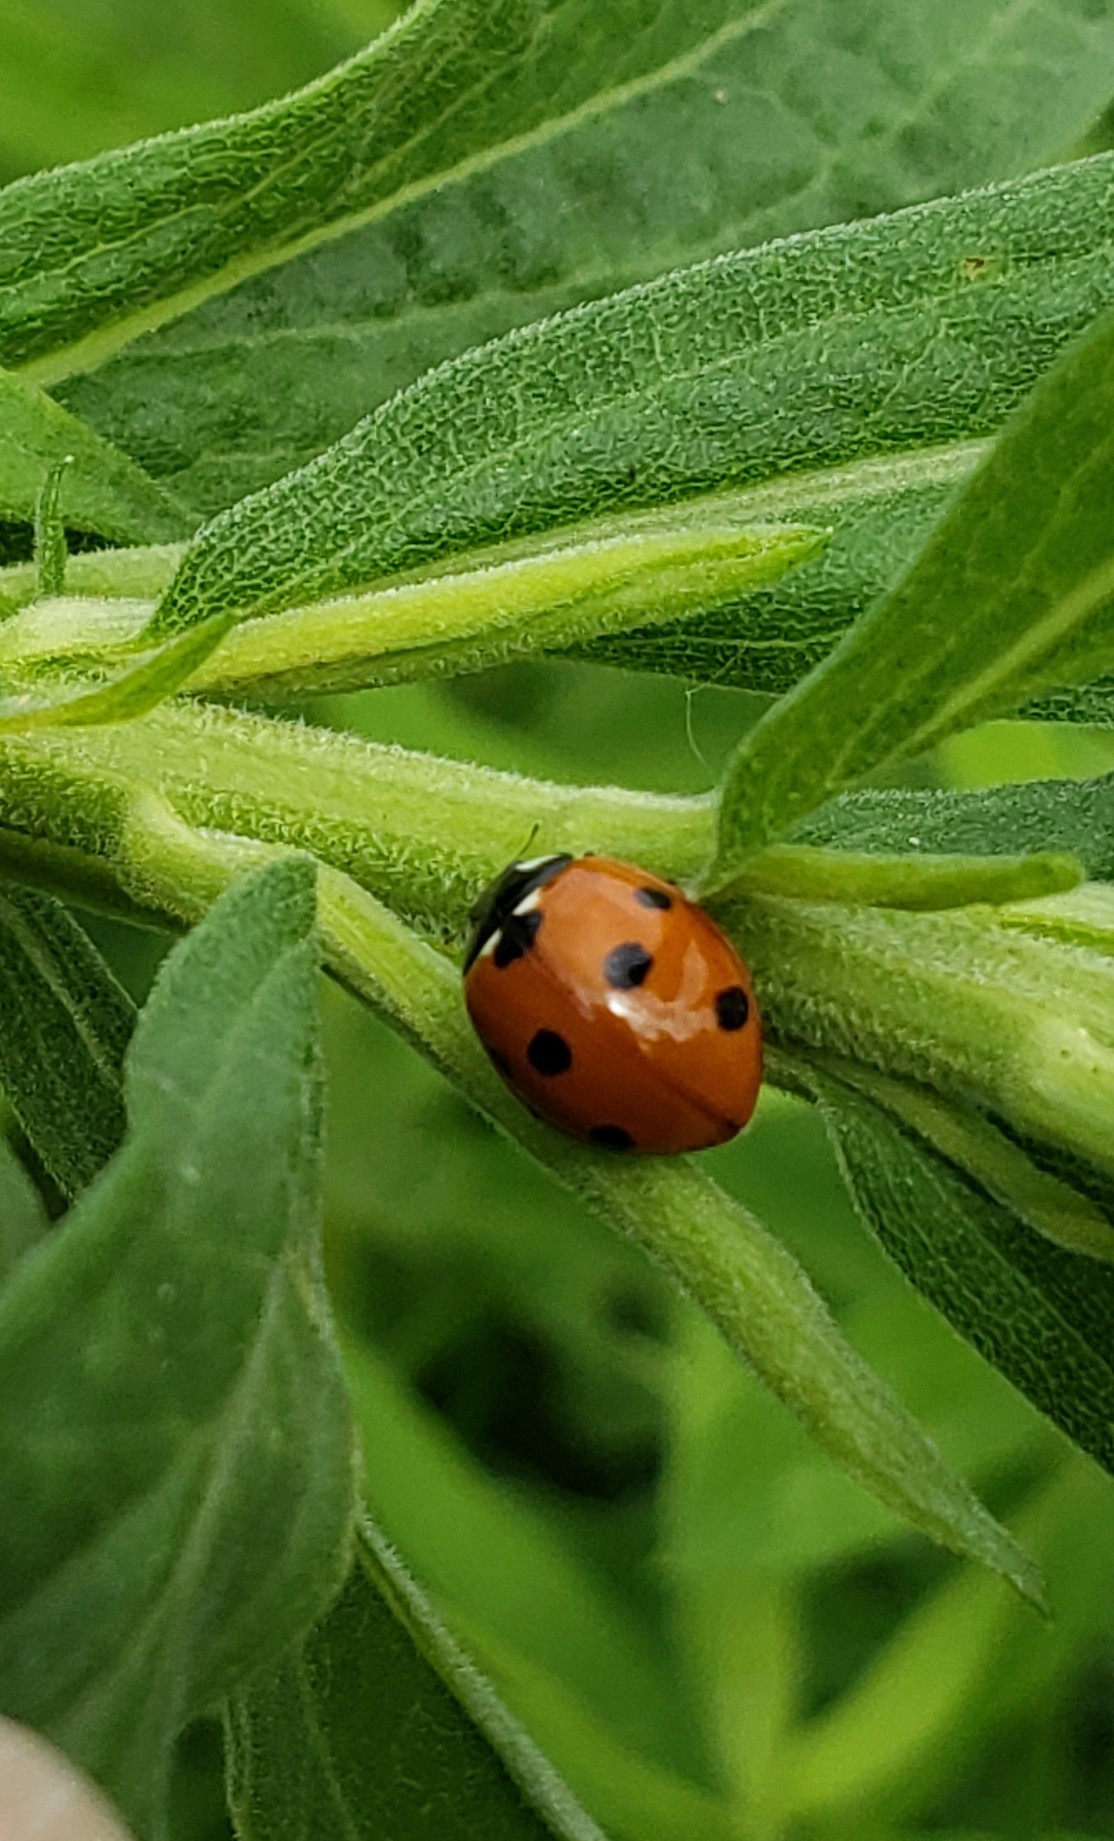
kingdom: Animalia
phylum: Arthropoda
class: Insecta
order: Coleoptera
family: Coccinellidae
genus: Coccinella
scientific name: Coccinella septempunctata
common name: Sevenspotted lady beetle
